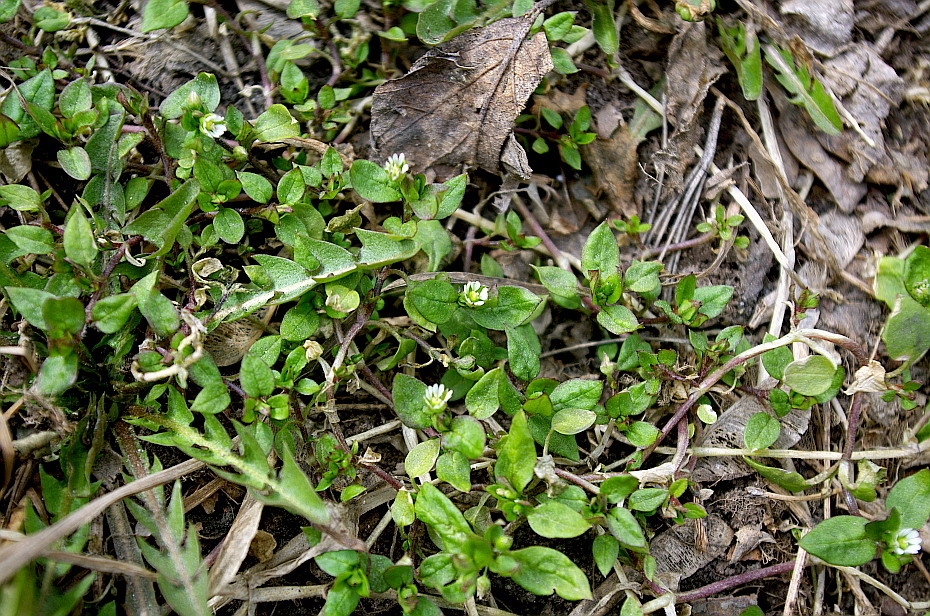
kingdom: Plantae
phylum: Tracheophyta
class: Magnoliopsida
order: Caryophyllales
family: Caryophyllaceae
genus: Stellaria
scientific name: Stellaria media
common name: Common chickweed
